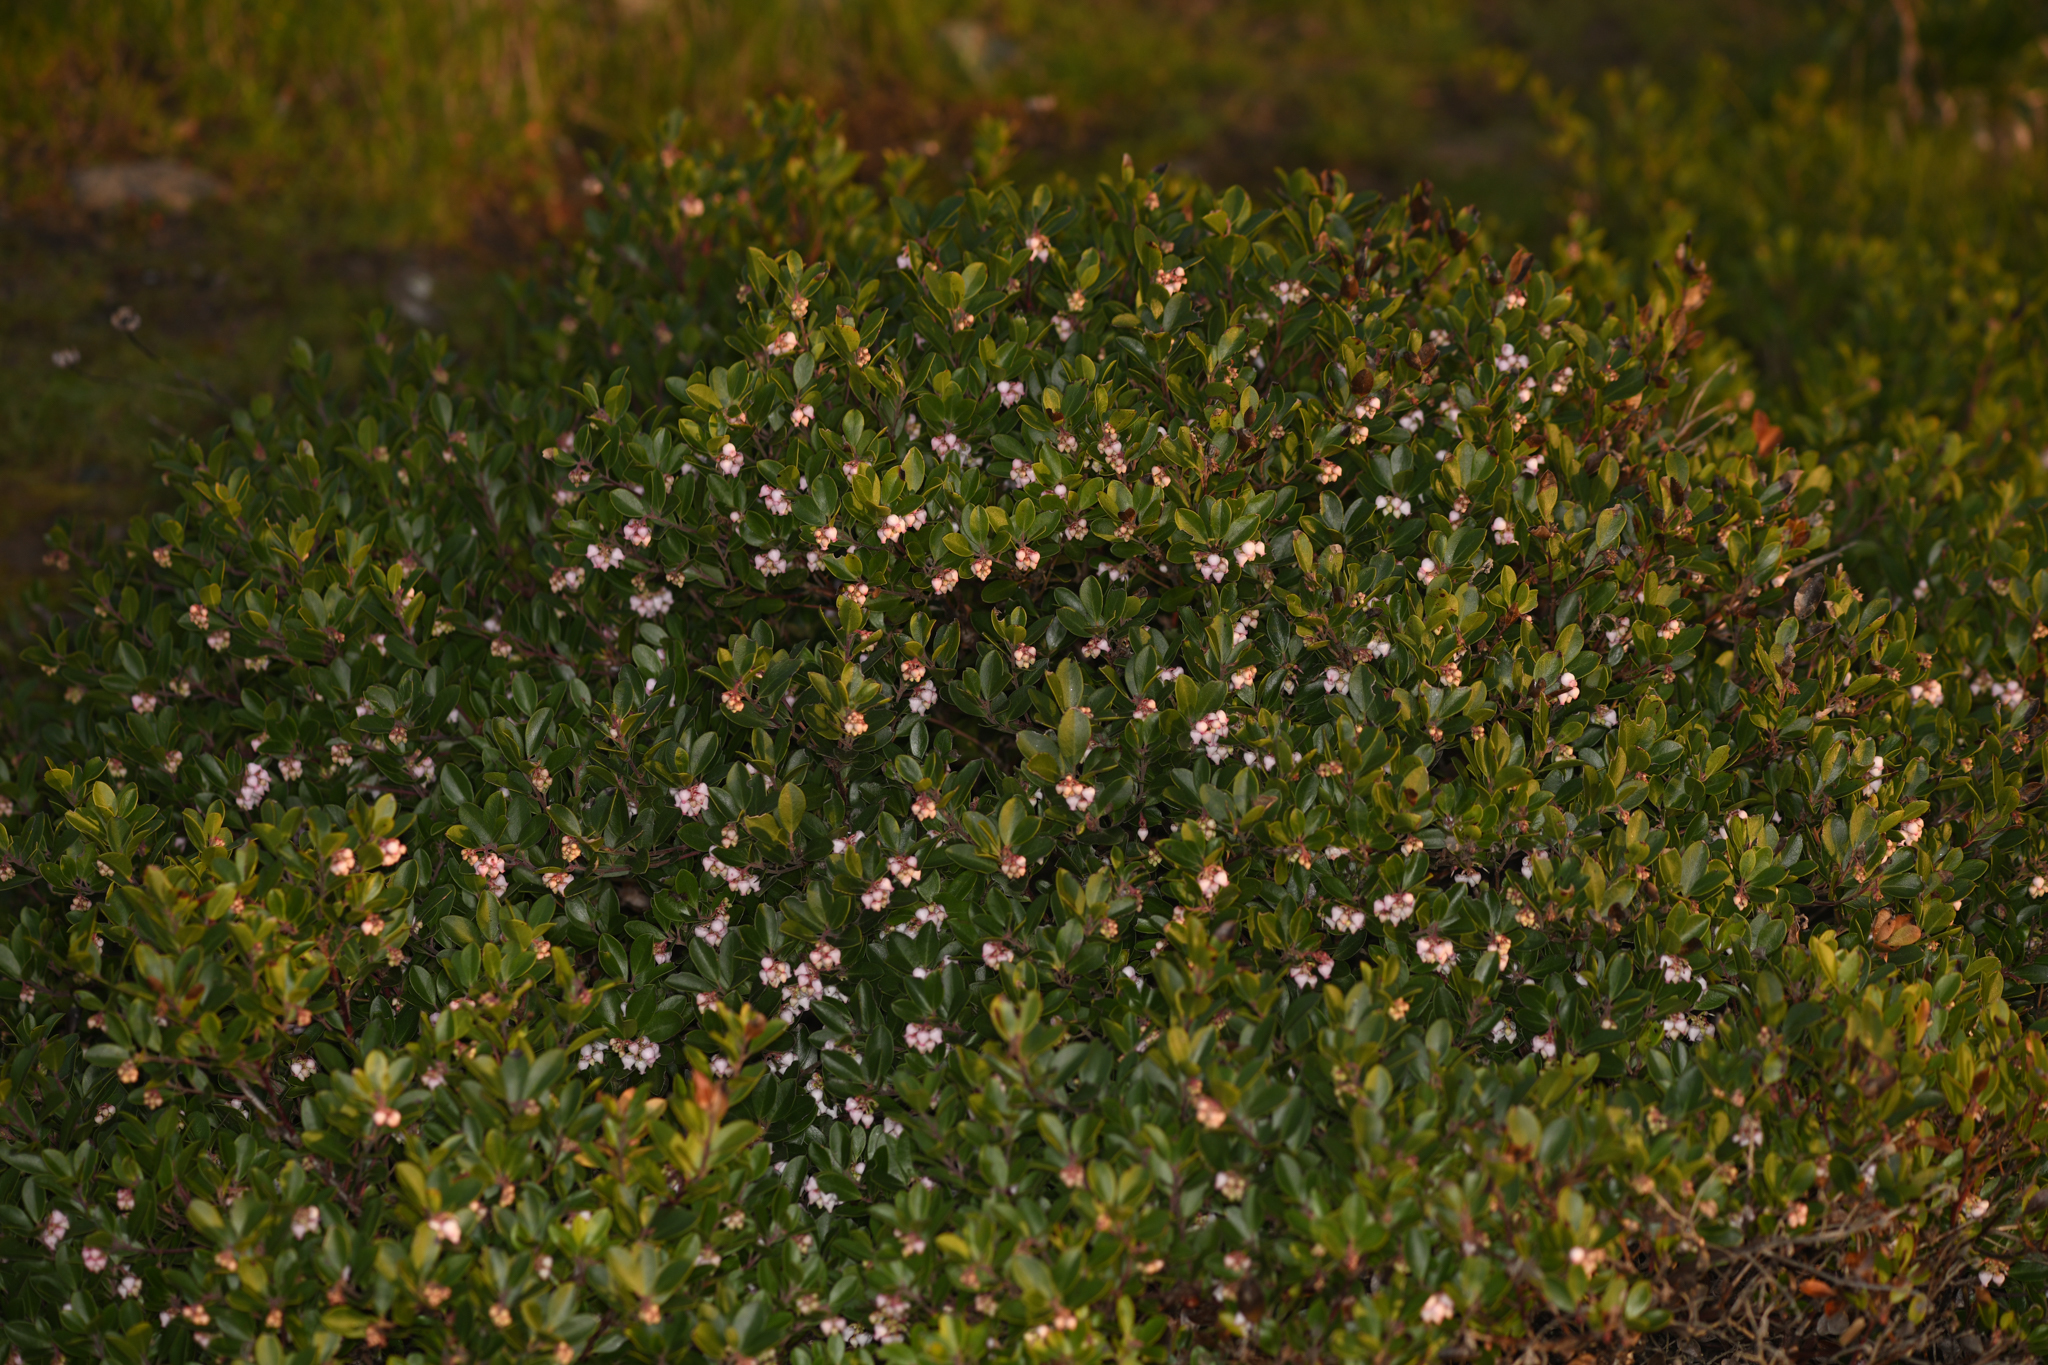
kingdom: Plantae
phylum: Tracheophyta
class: Magnoliopsida
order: Ericales
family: Ericaceae
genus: Arctostaphylos
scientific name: Arctostaphylos franciscana
